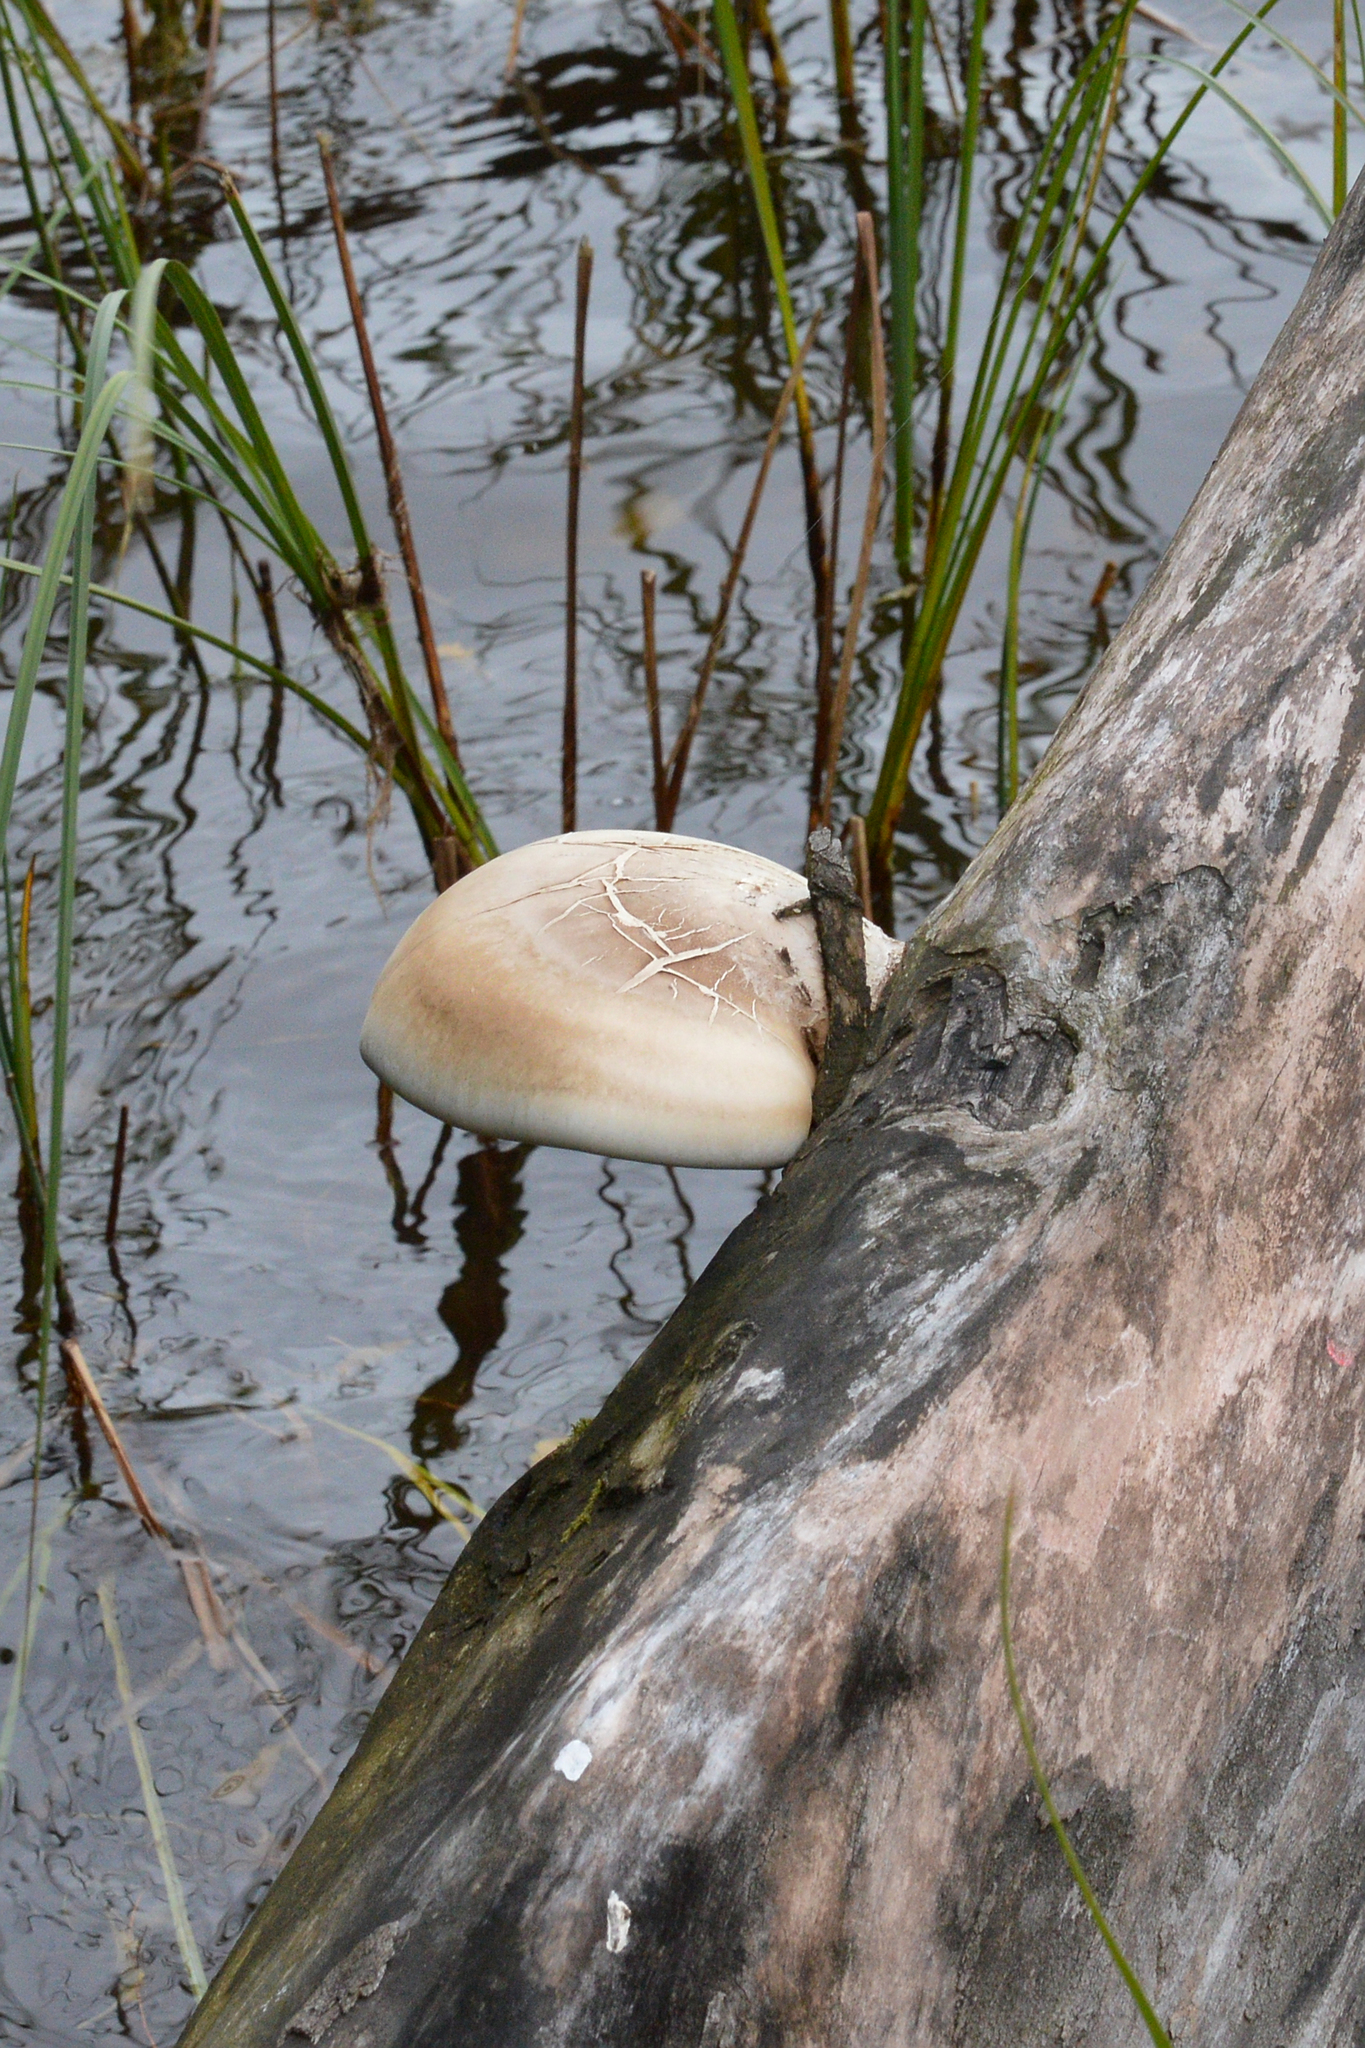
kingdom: Fungi
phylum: Basidiomycota
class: Agaricomycetes
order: Polyporales
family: Fomitopsidaceae
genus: Fomitopsis
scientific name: Fomitopsis betulina
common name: Birch polypore
